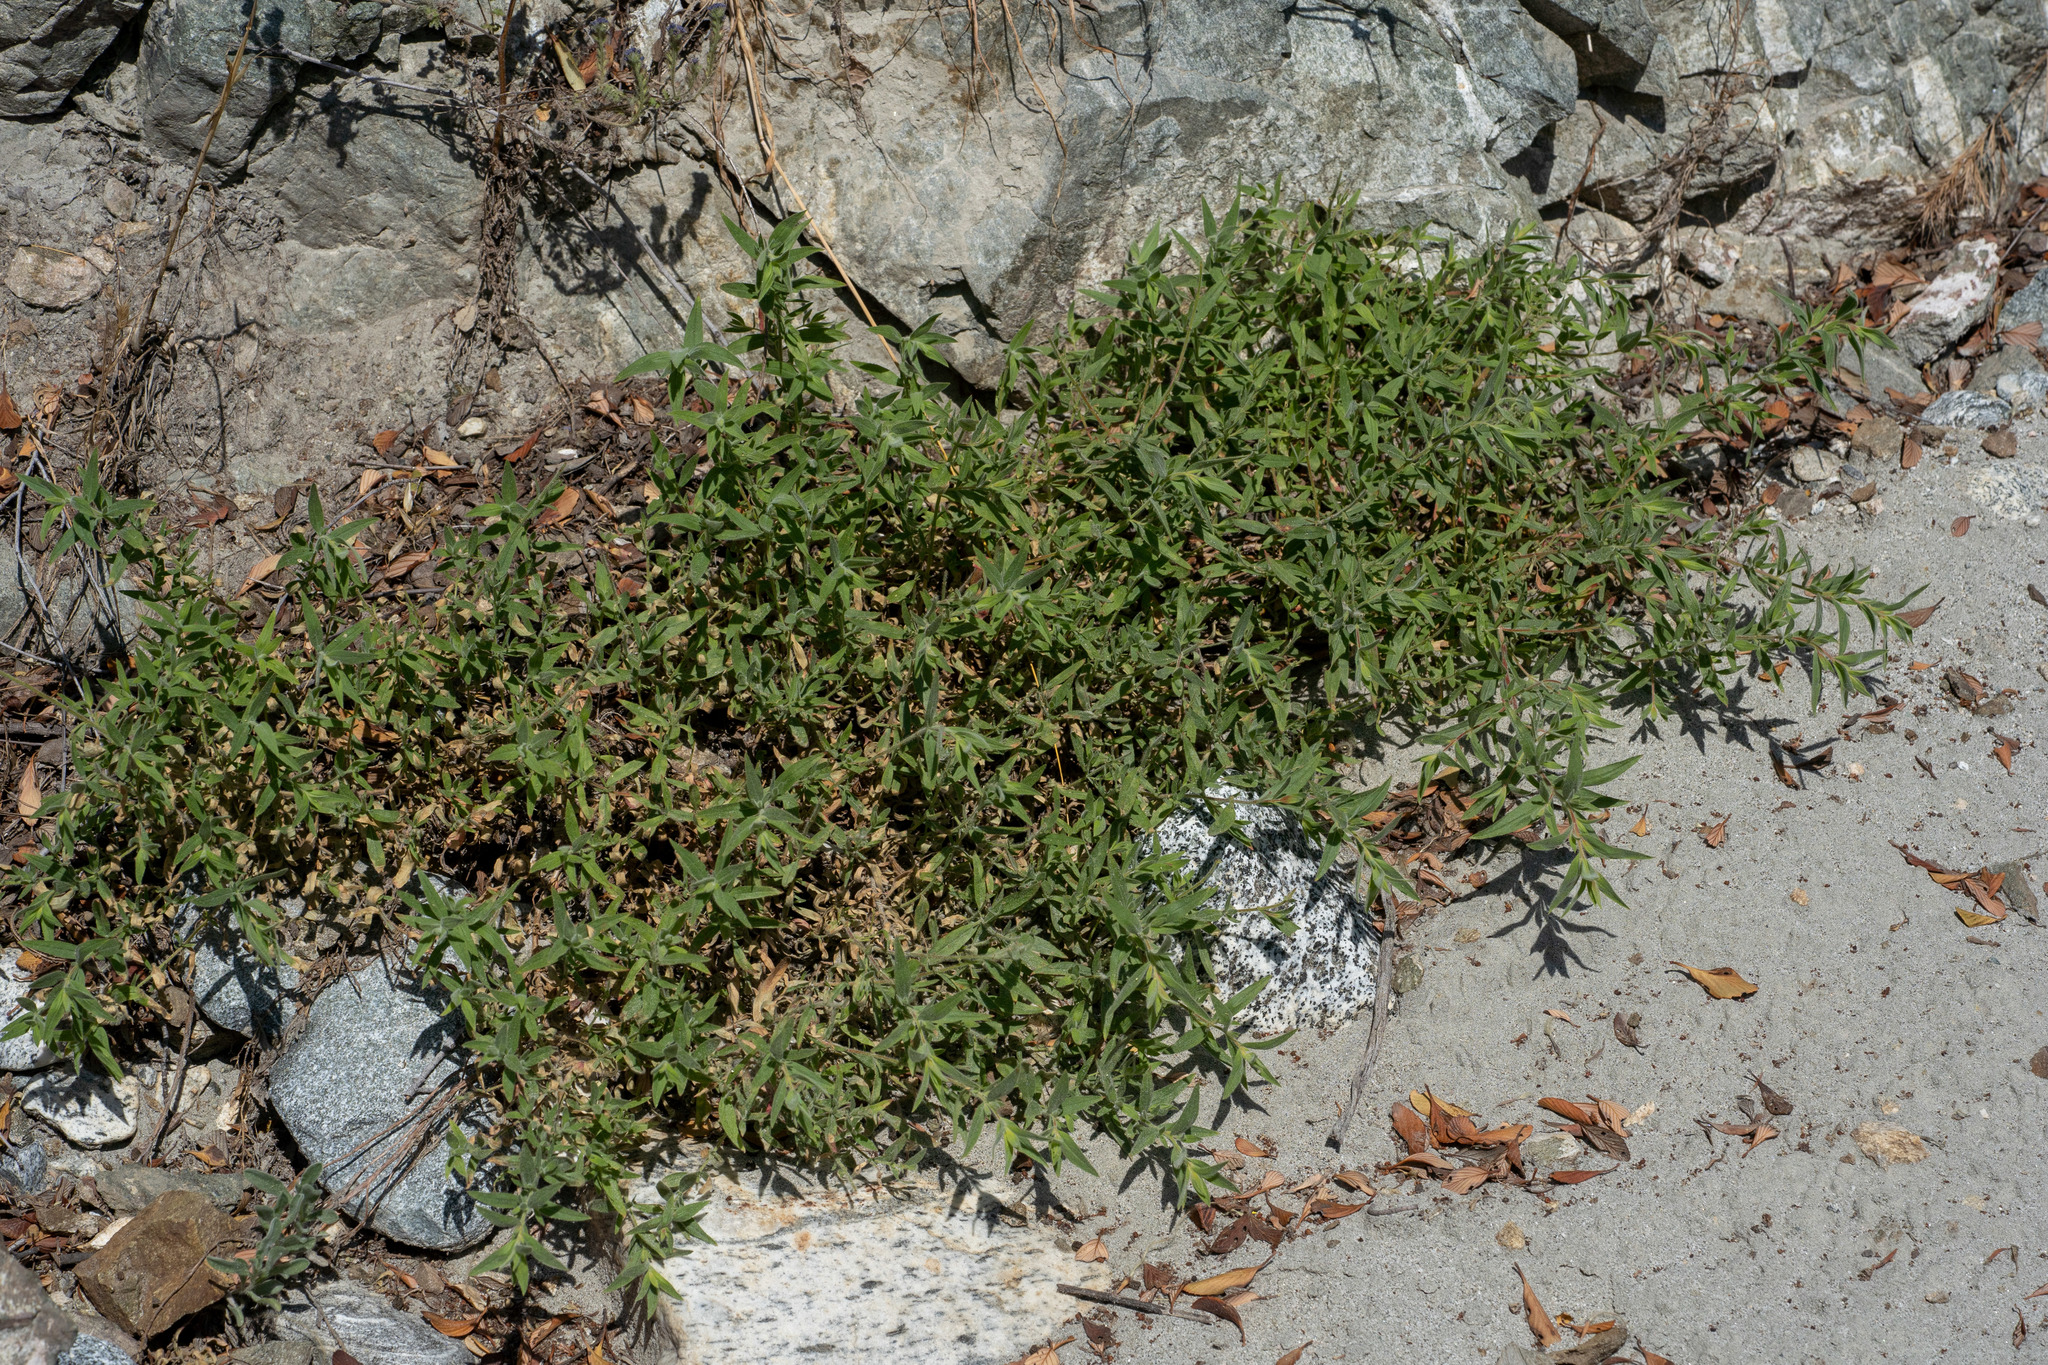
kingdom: Plantae
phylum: Tracheophyta
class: Magnoliopsida
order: Myrtales
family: Onagraceae
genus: Epilobium
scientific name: Epilobium canum
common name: California-fuchsia
